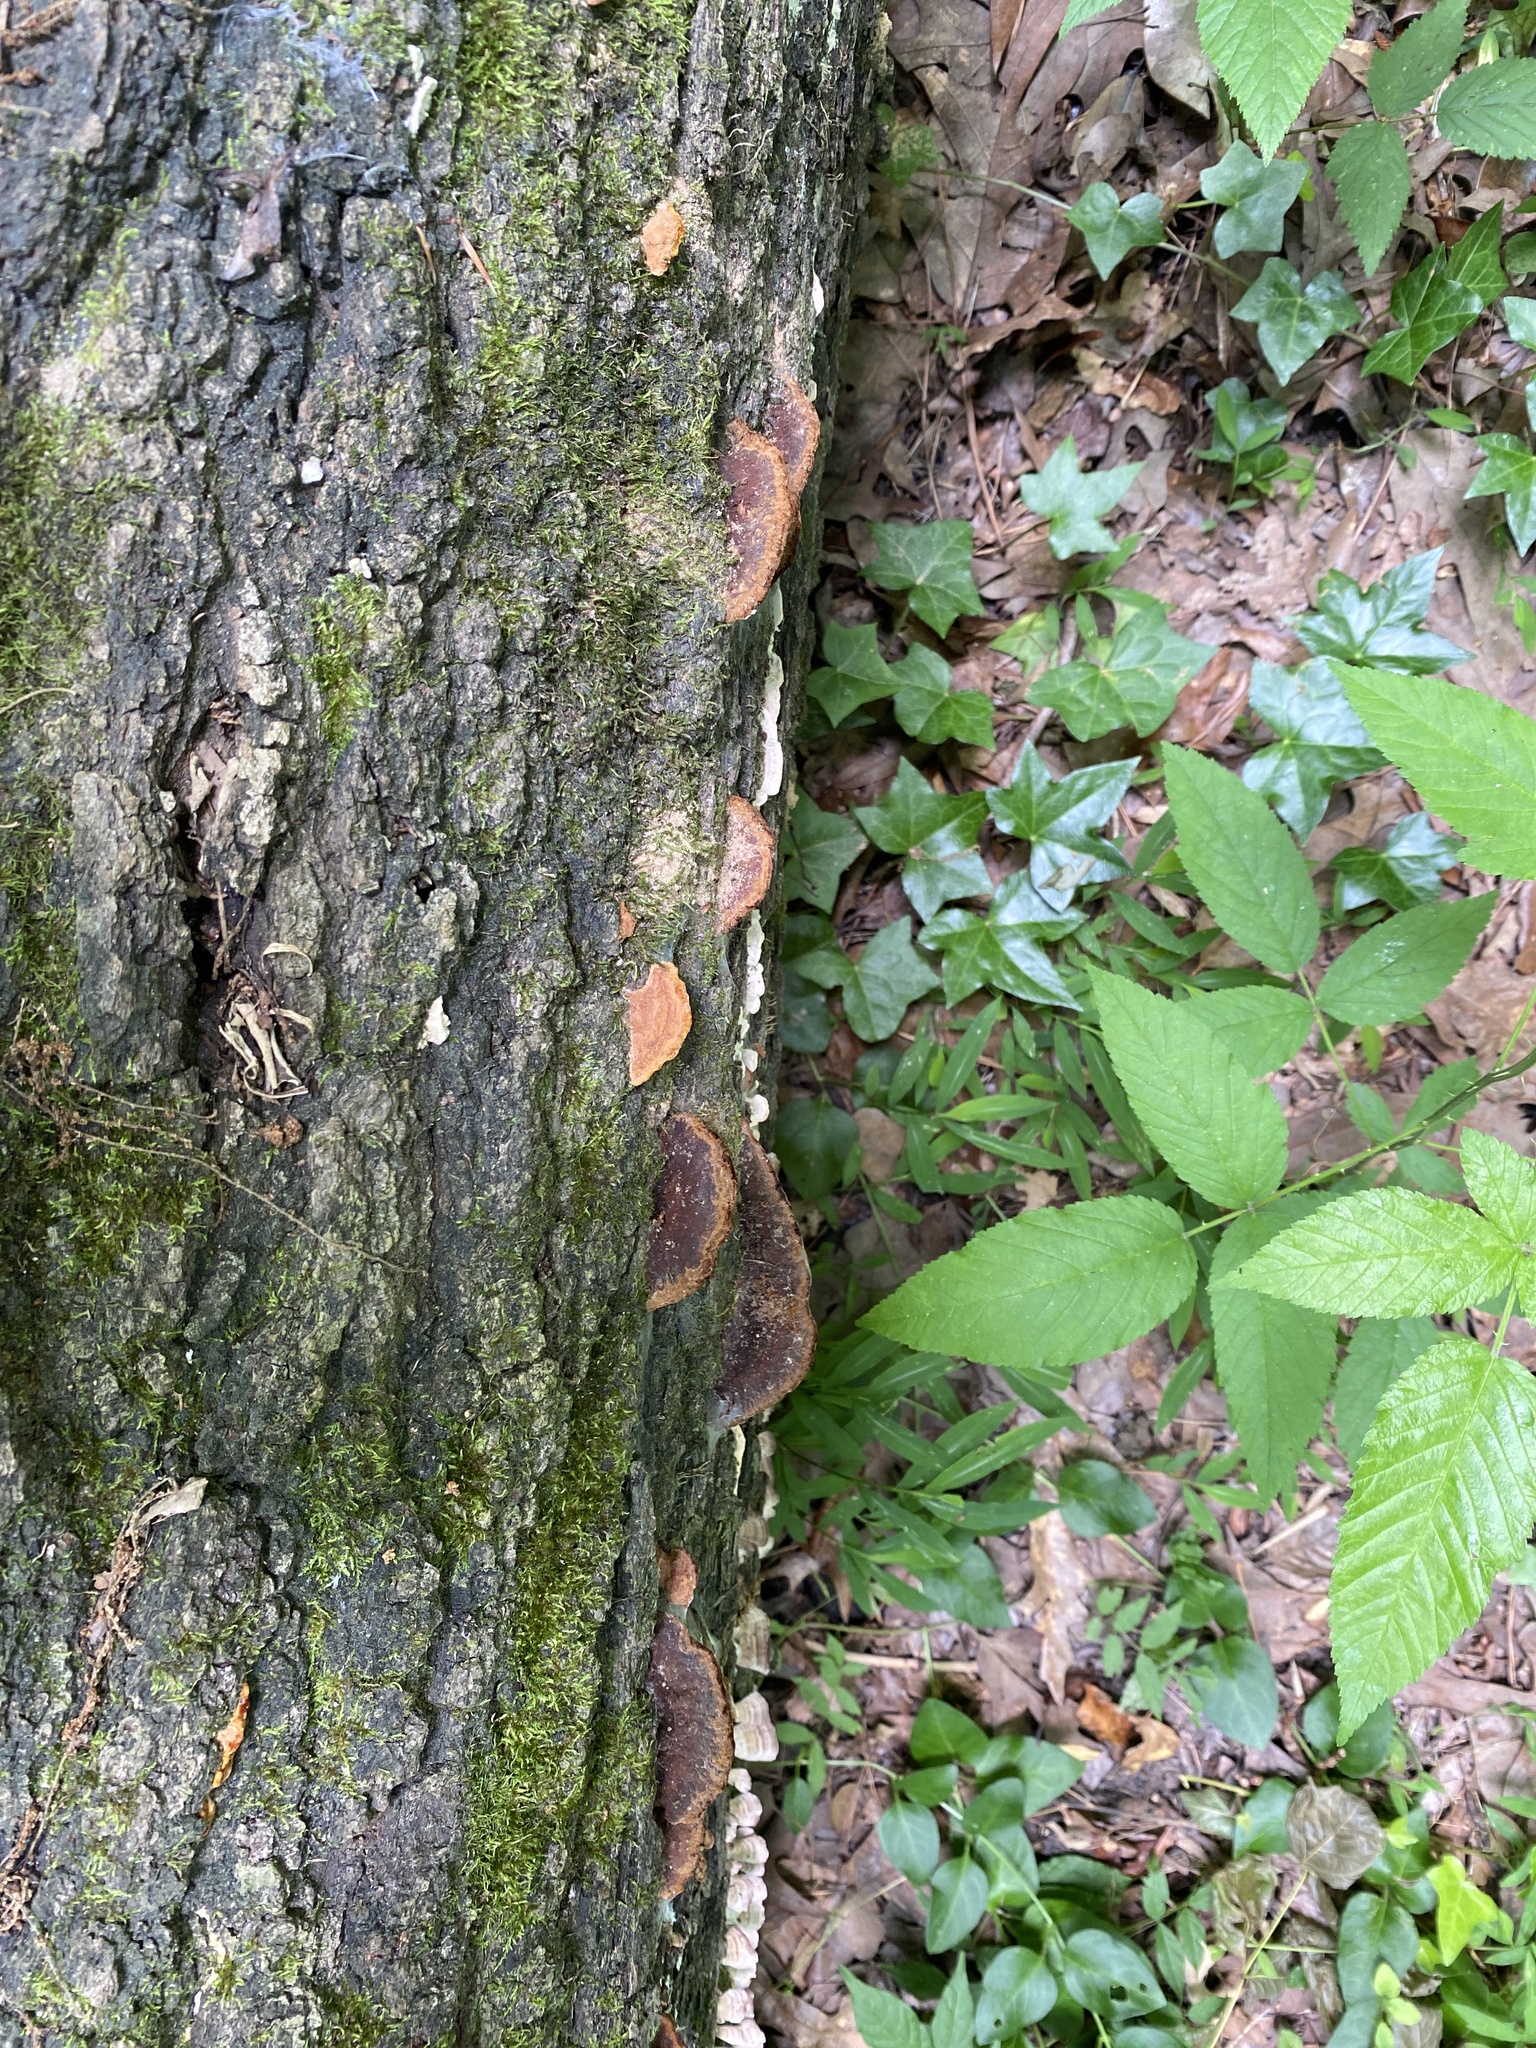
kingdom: Fungi
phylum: Basidiomycota
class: Agaricomycetes
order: Hymenochaetales
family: Hymenochaetaceae
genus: Phellinus
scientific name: Phellinus gilvus
